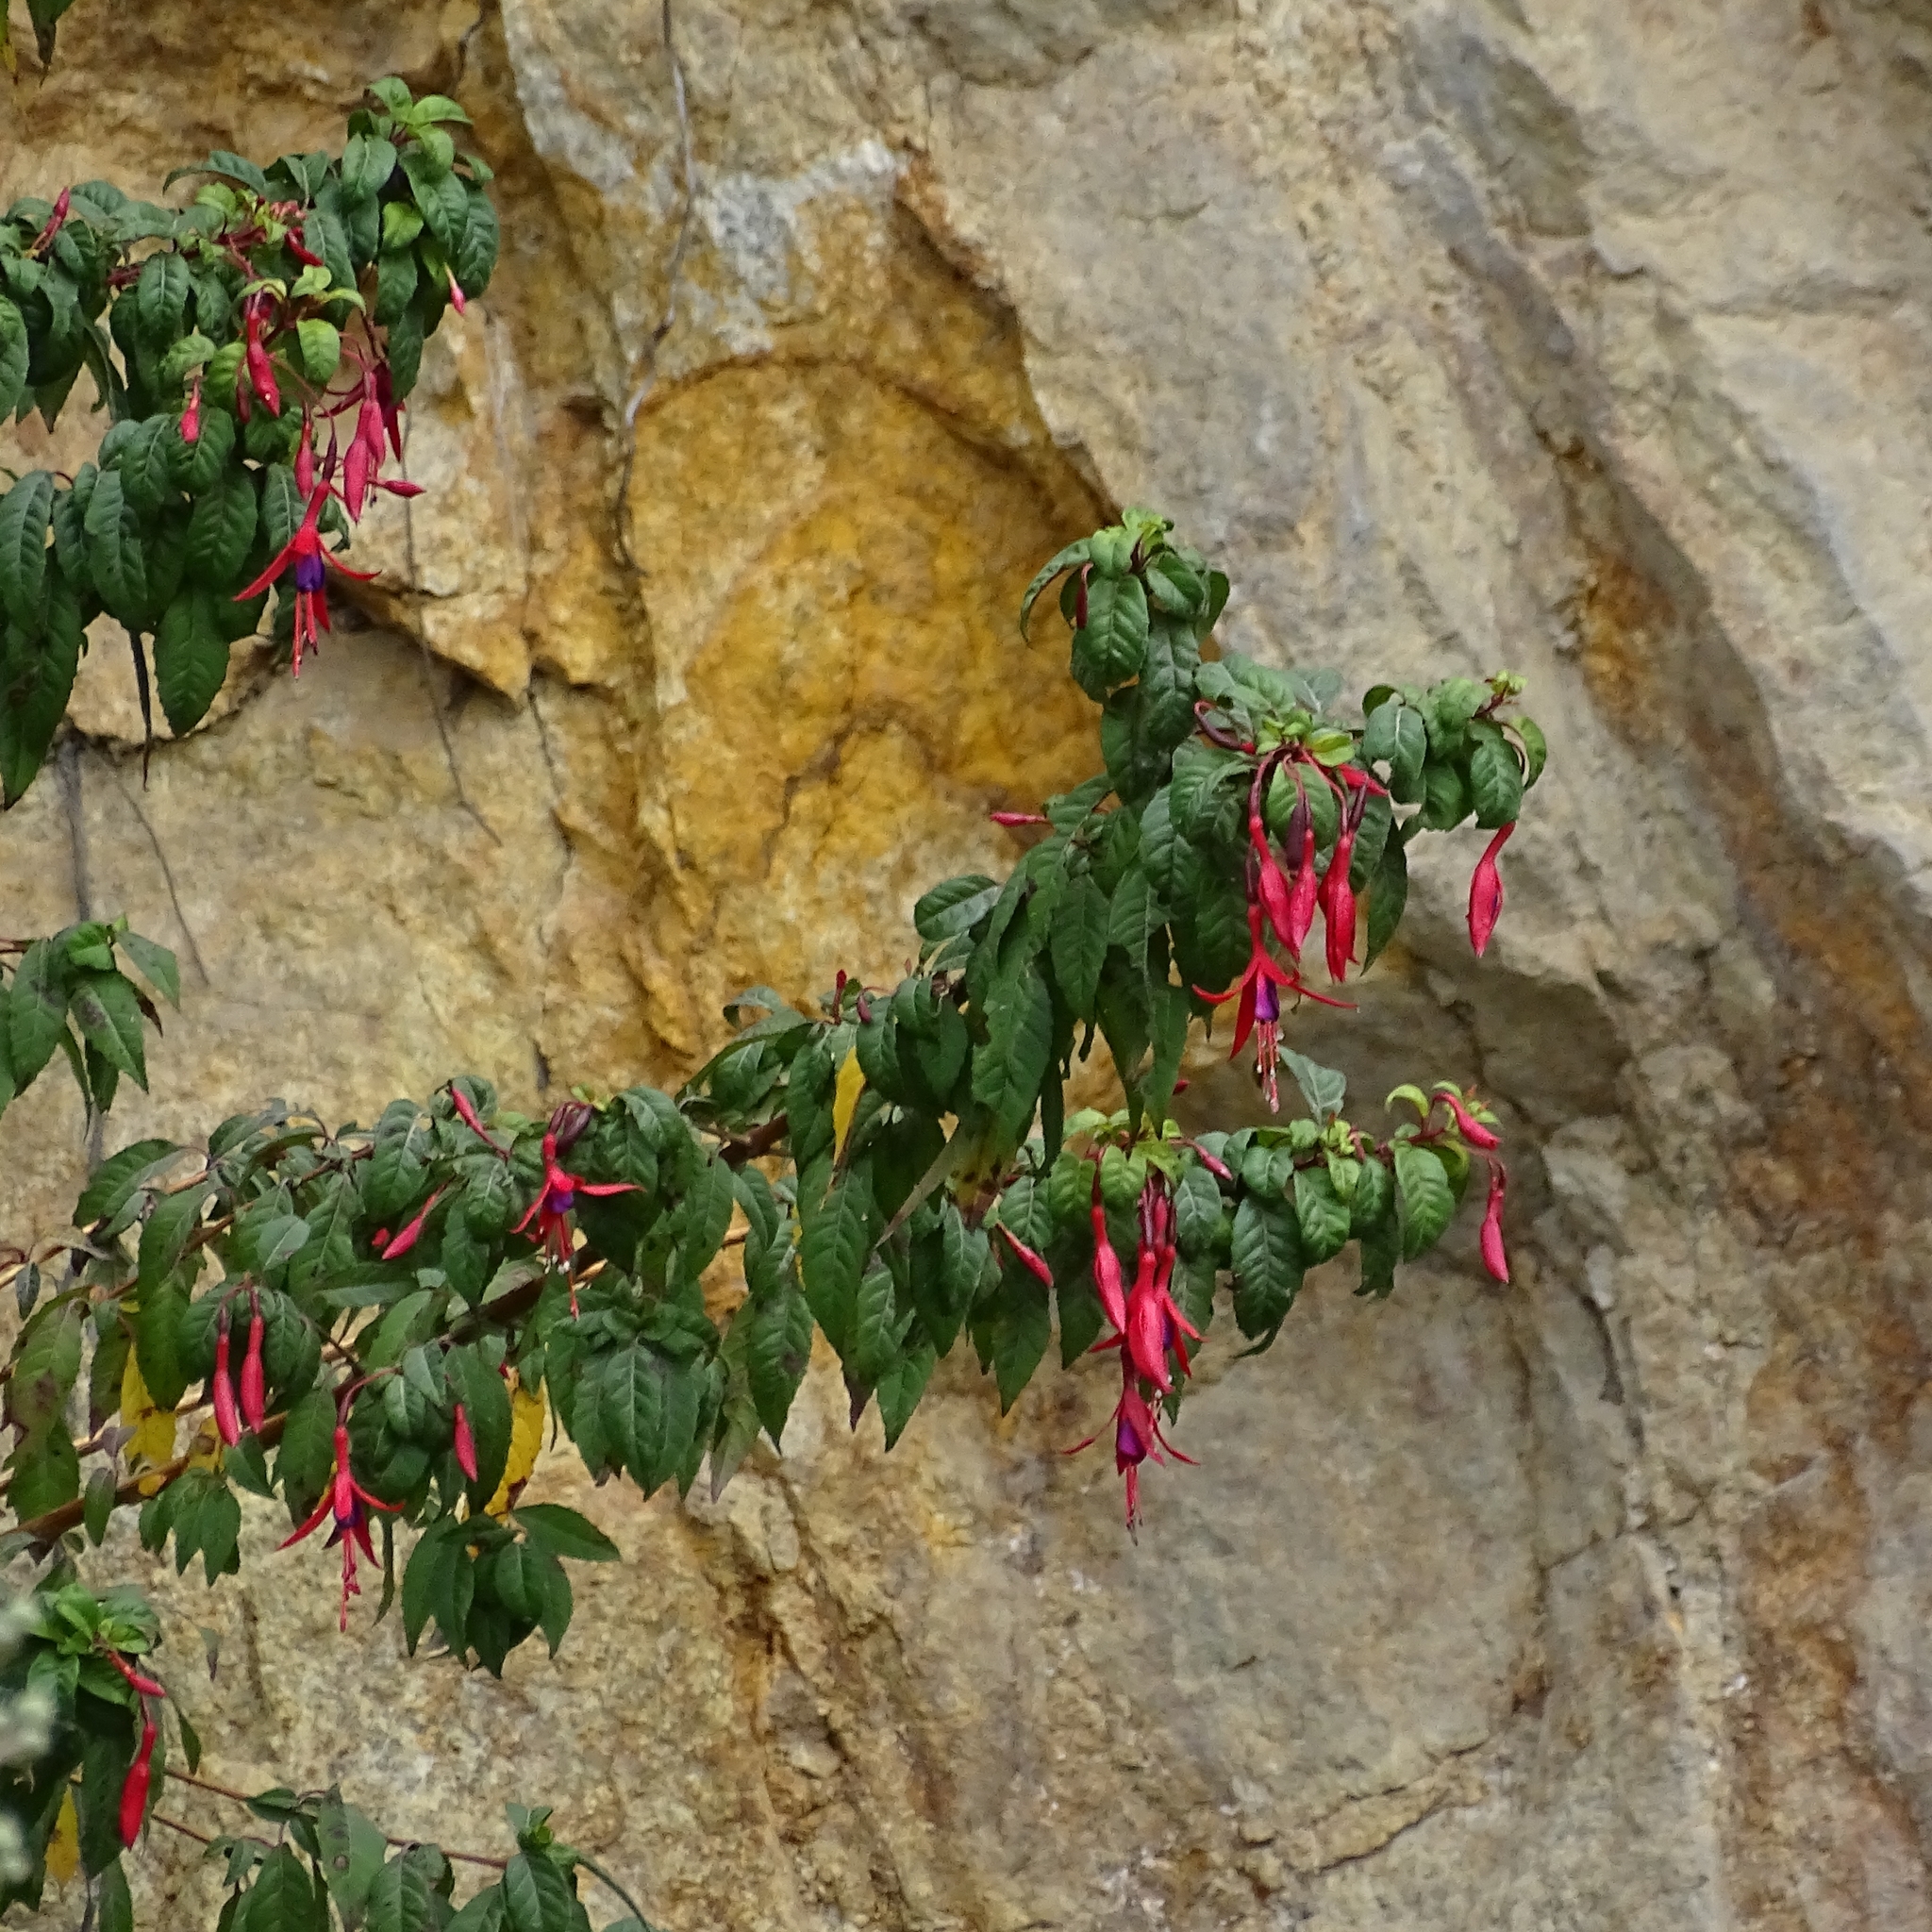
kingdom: Plantae
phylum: Tracheophyta
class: Magnoliopsida
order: Myrtales
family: Onagraceae
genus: Fuchsia
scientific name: Fuchsia magellanica
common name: Hardy fuchsia
